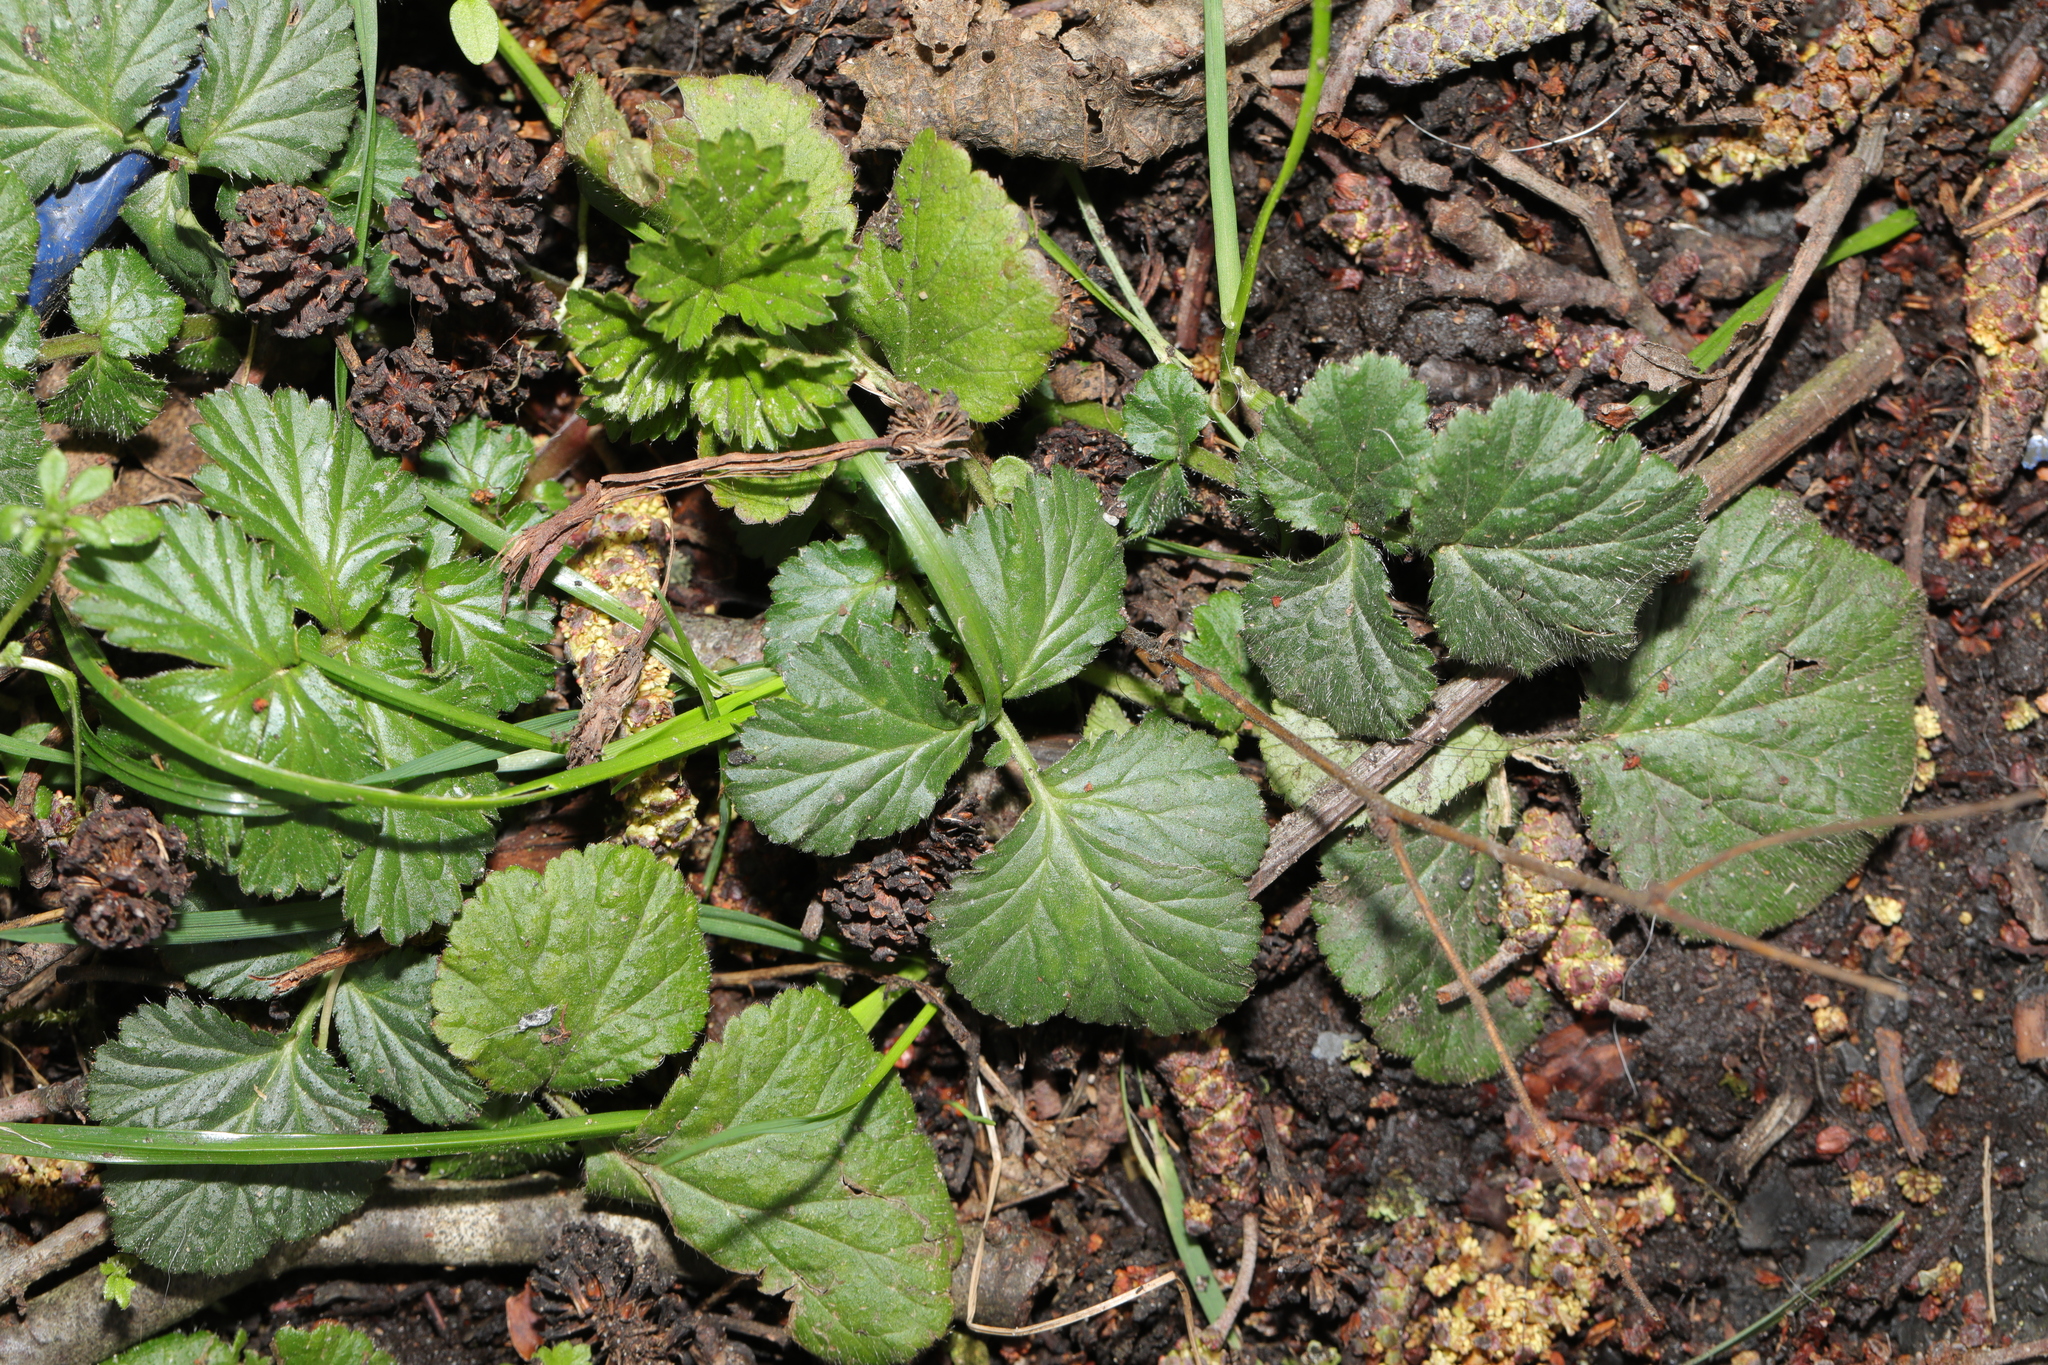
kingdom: Plantae
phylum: Tracheophyta
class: Magnoliopsida
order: Rosales
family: Rosaceae
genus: Geum
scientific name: Geum urbanum
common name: Wood avens
